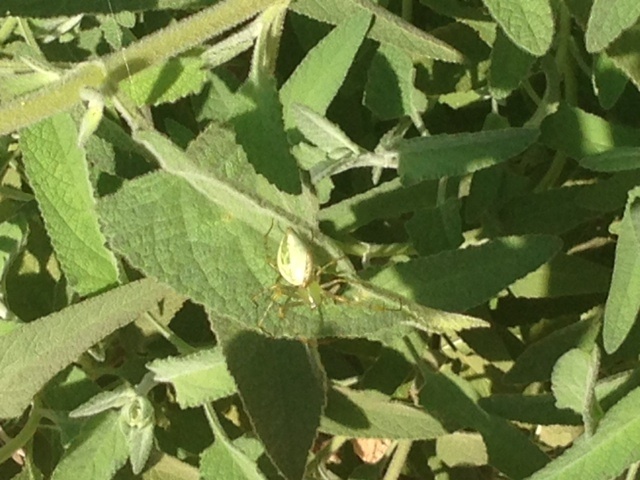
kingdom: Animalia
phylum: Arthropoda
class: Arachnida
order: Araneae
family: Oxyopidae
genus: Peucetia
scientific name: Peucetia viridans
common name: Lynx spiders
